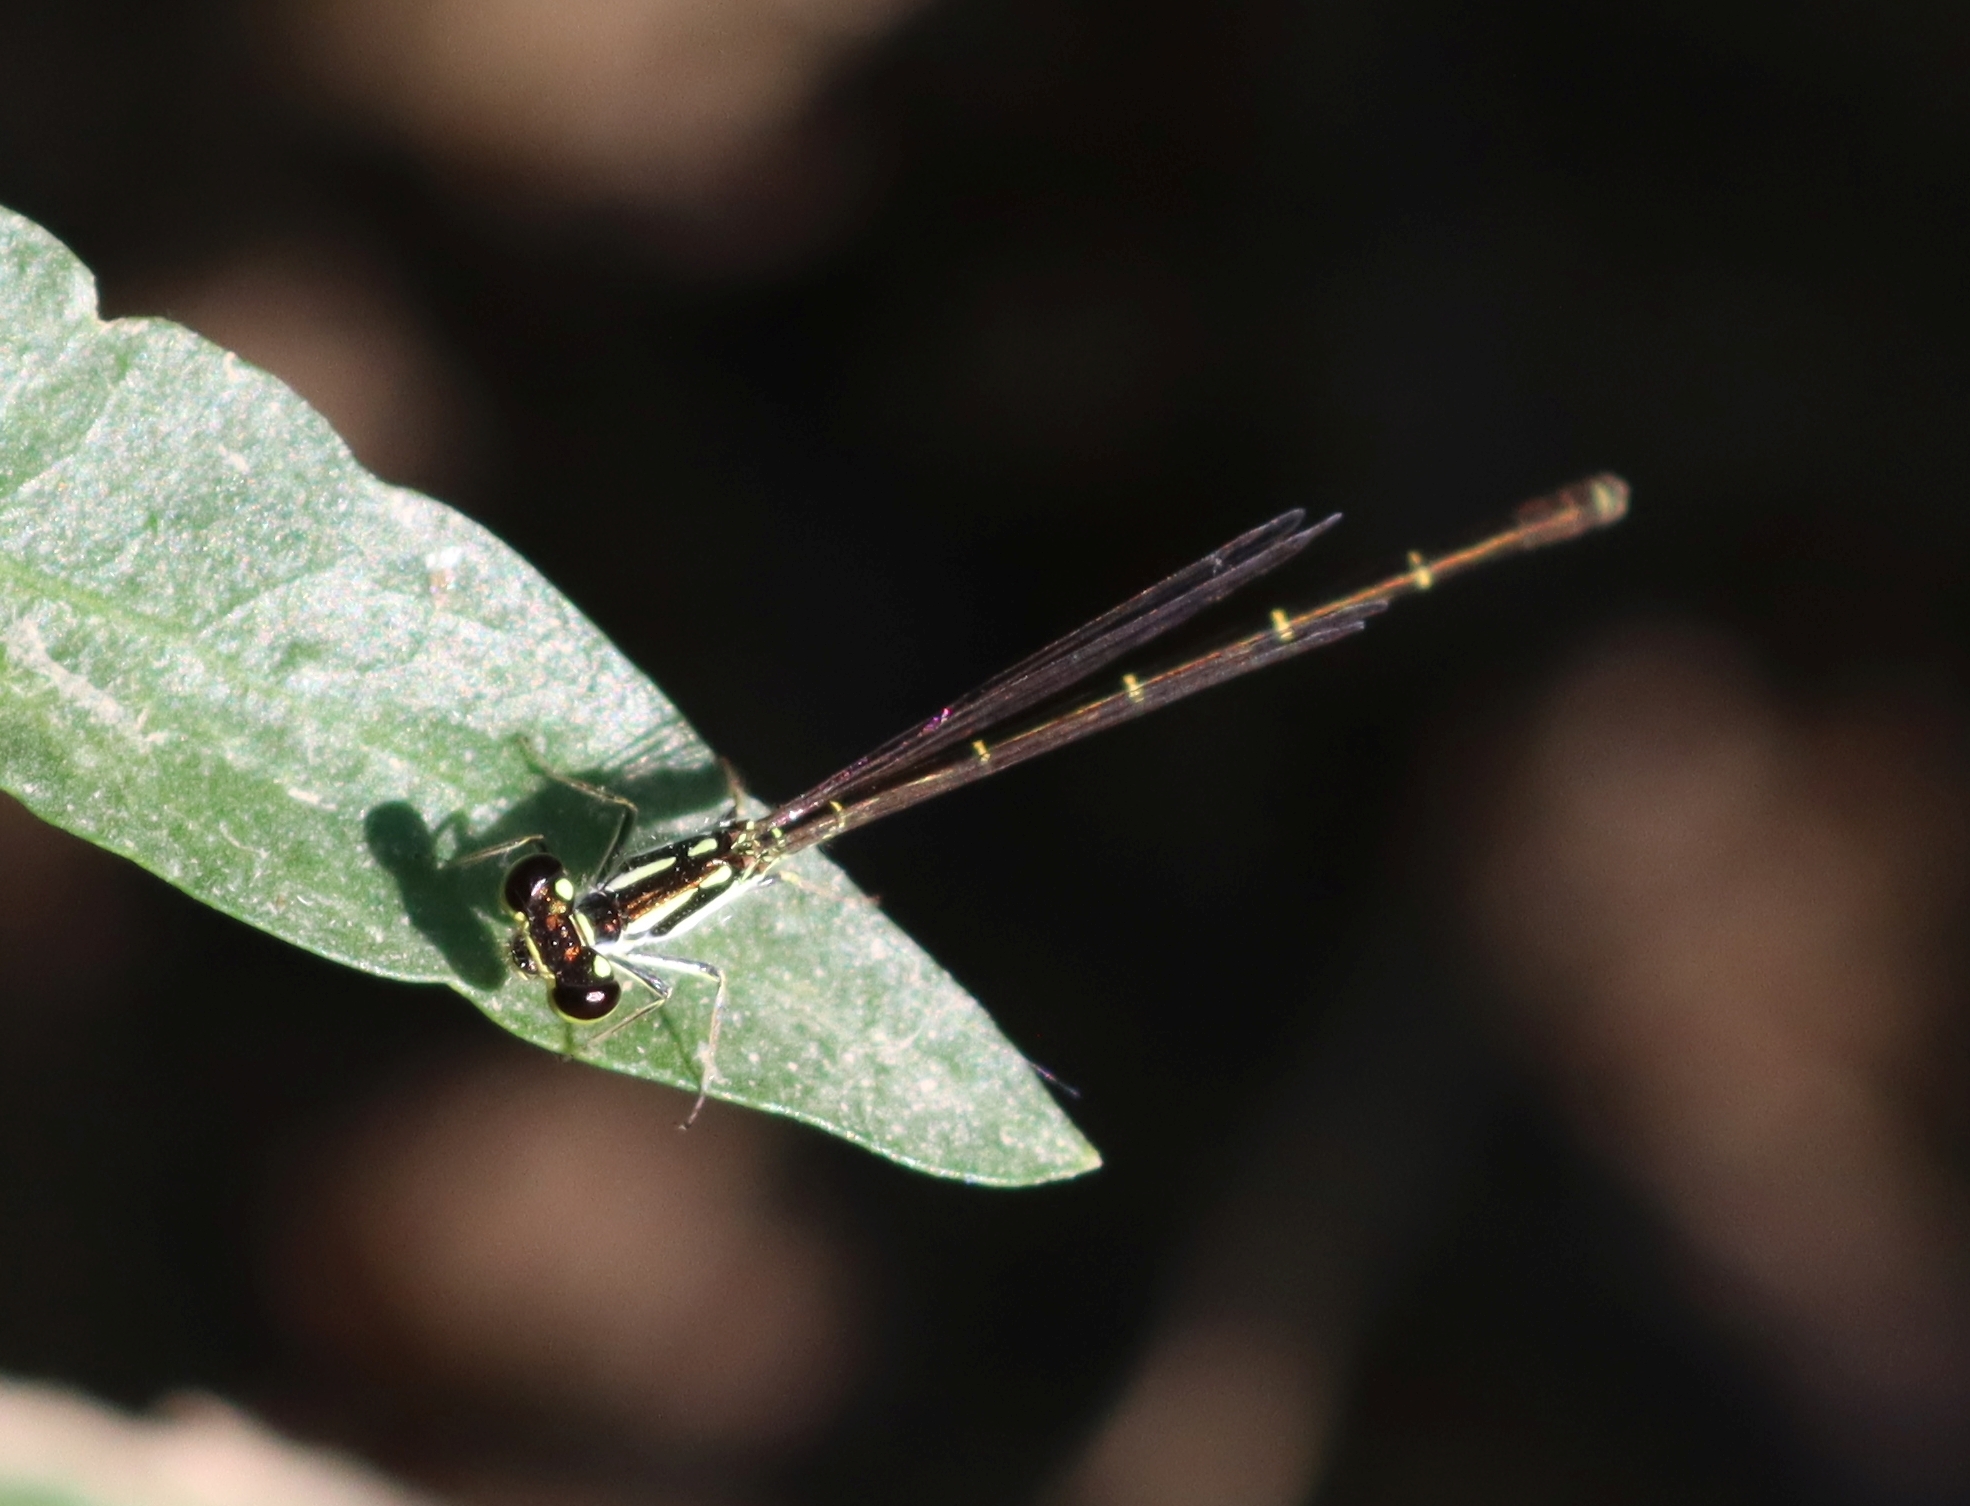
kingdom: Animalia
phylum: Arthropoda
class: Insecta
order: Odonata
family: Coenagrionidae
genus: Ischnura
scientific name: Ischnura posita
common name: Fragile forktail
